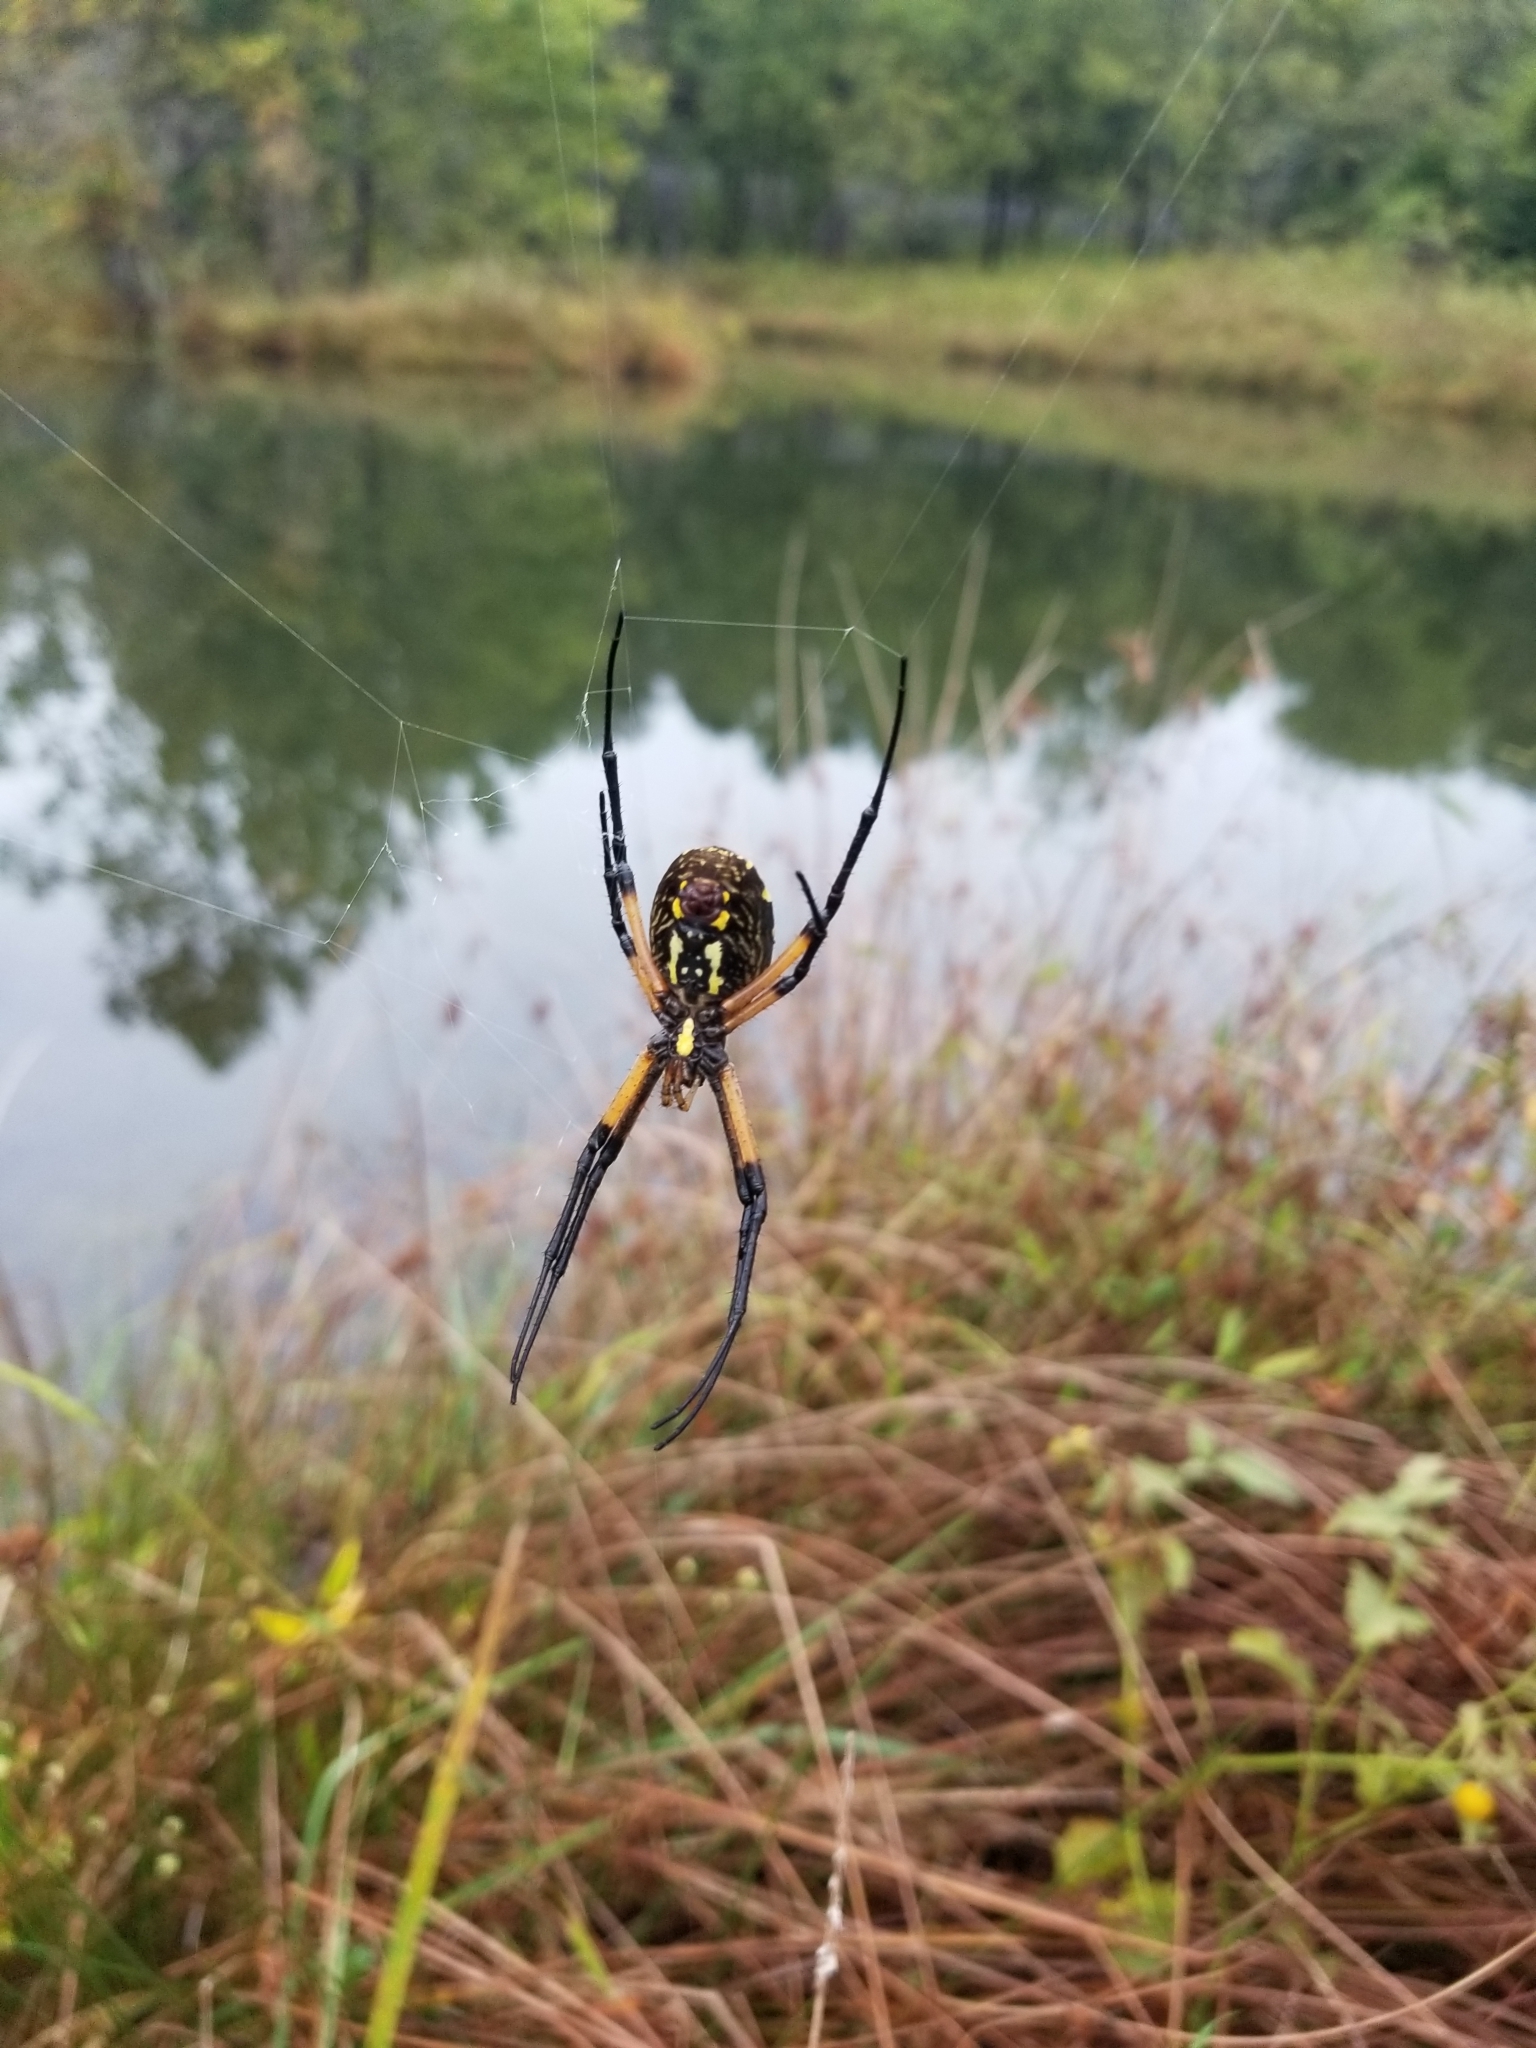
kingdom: Animalia
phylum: Arthropoda
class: Arachnida
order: Araneae
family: Araneidae
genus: Argiope
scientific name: Argiope aurantia
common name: Orb weavers
